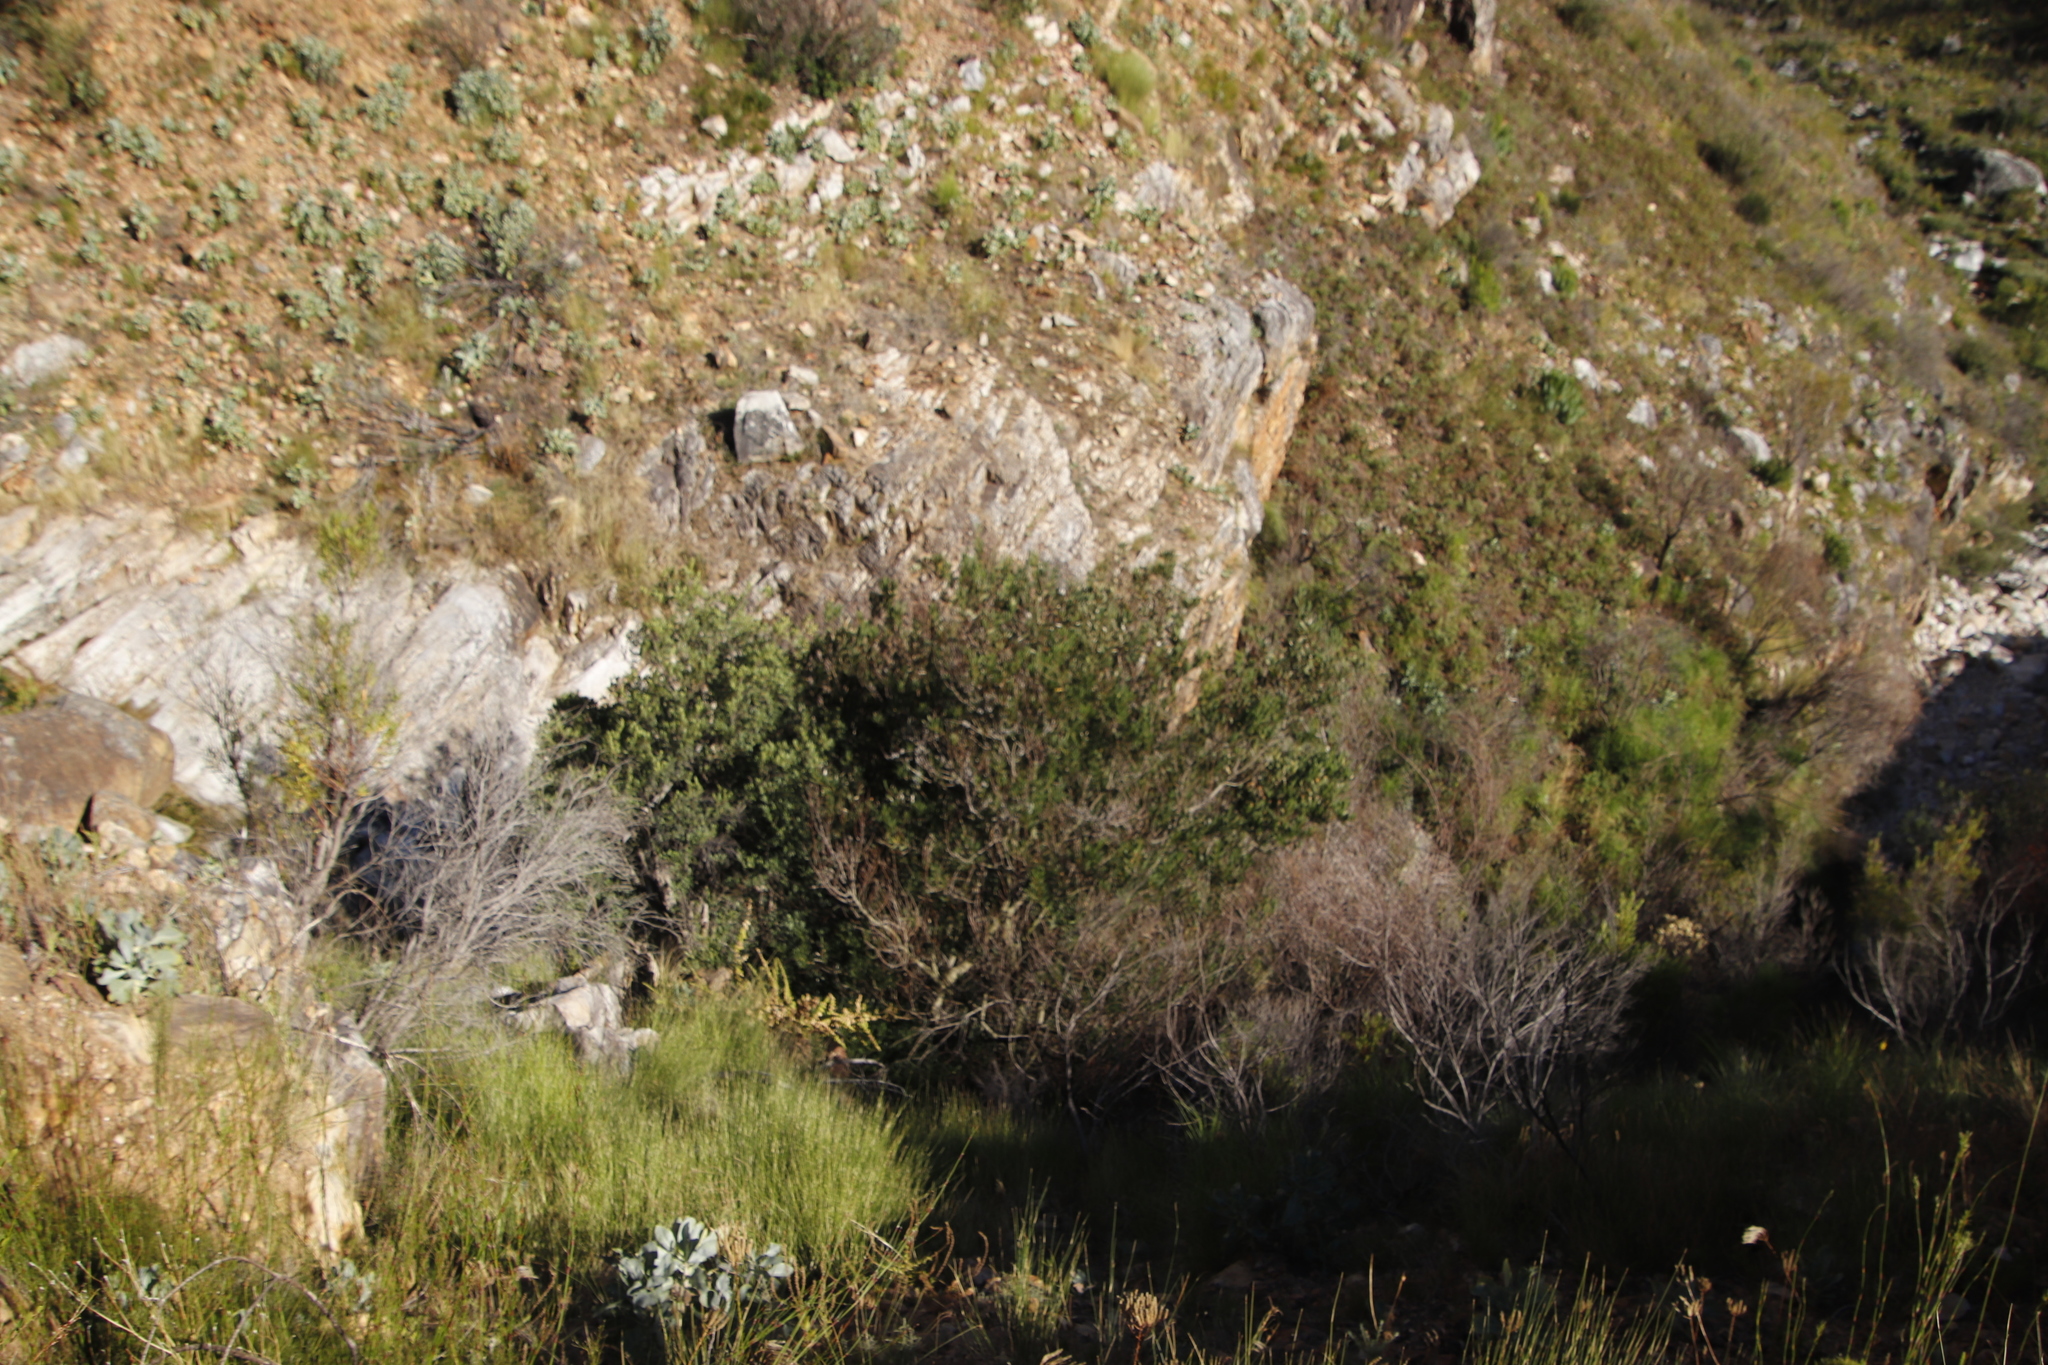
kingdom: Plantae
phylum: Tracheophyta
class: Magnoliopsida
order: Fabales
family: Fabaceae
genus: Acacia
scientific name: Acacia longifolia
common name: Sydney golden wattle
